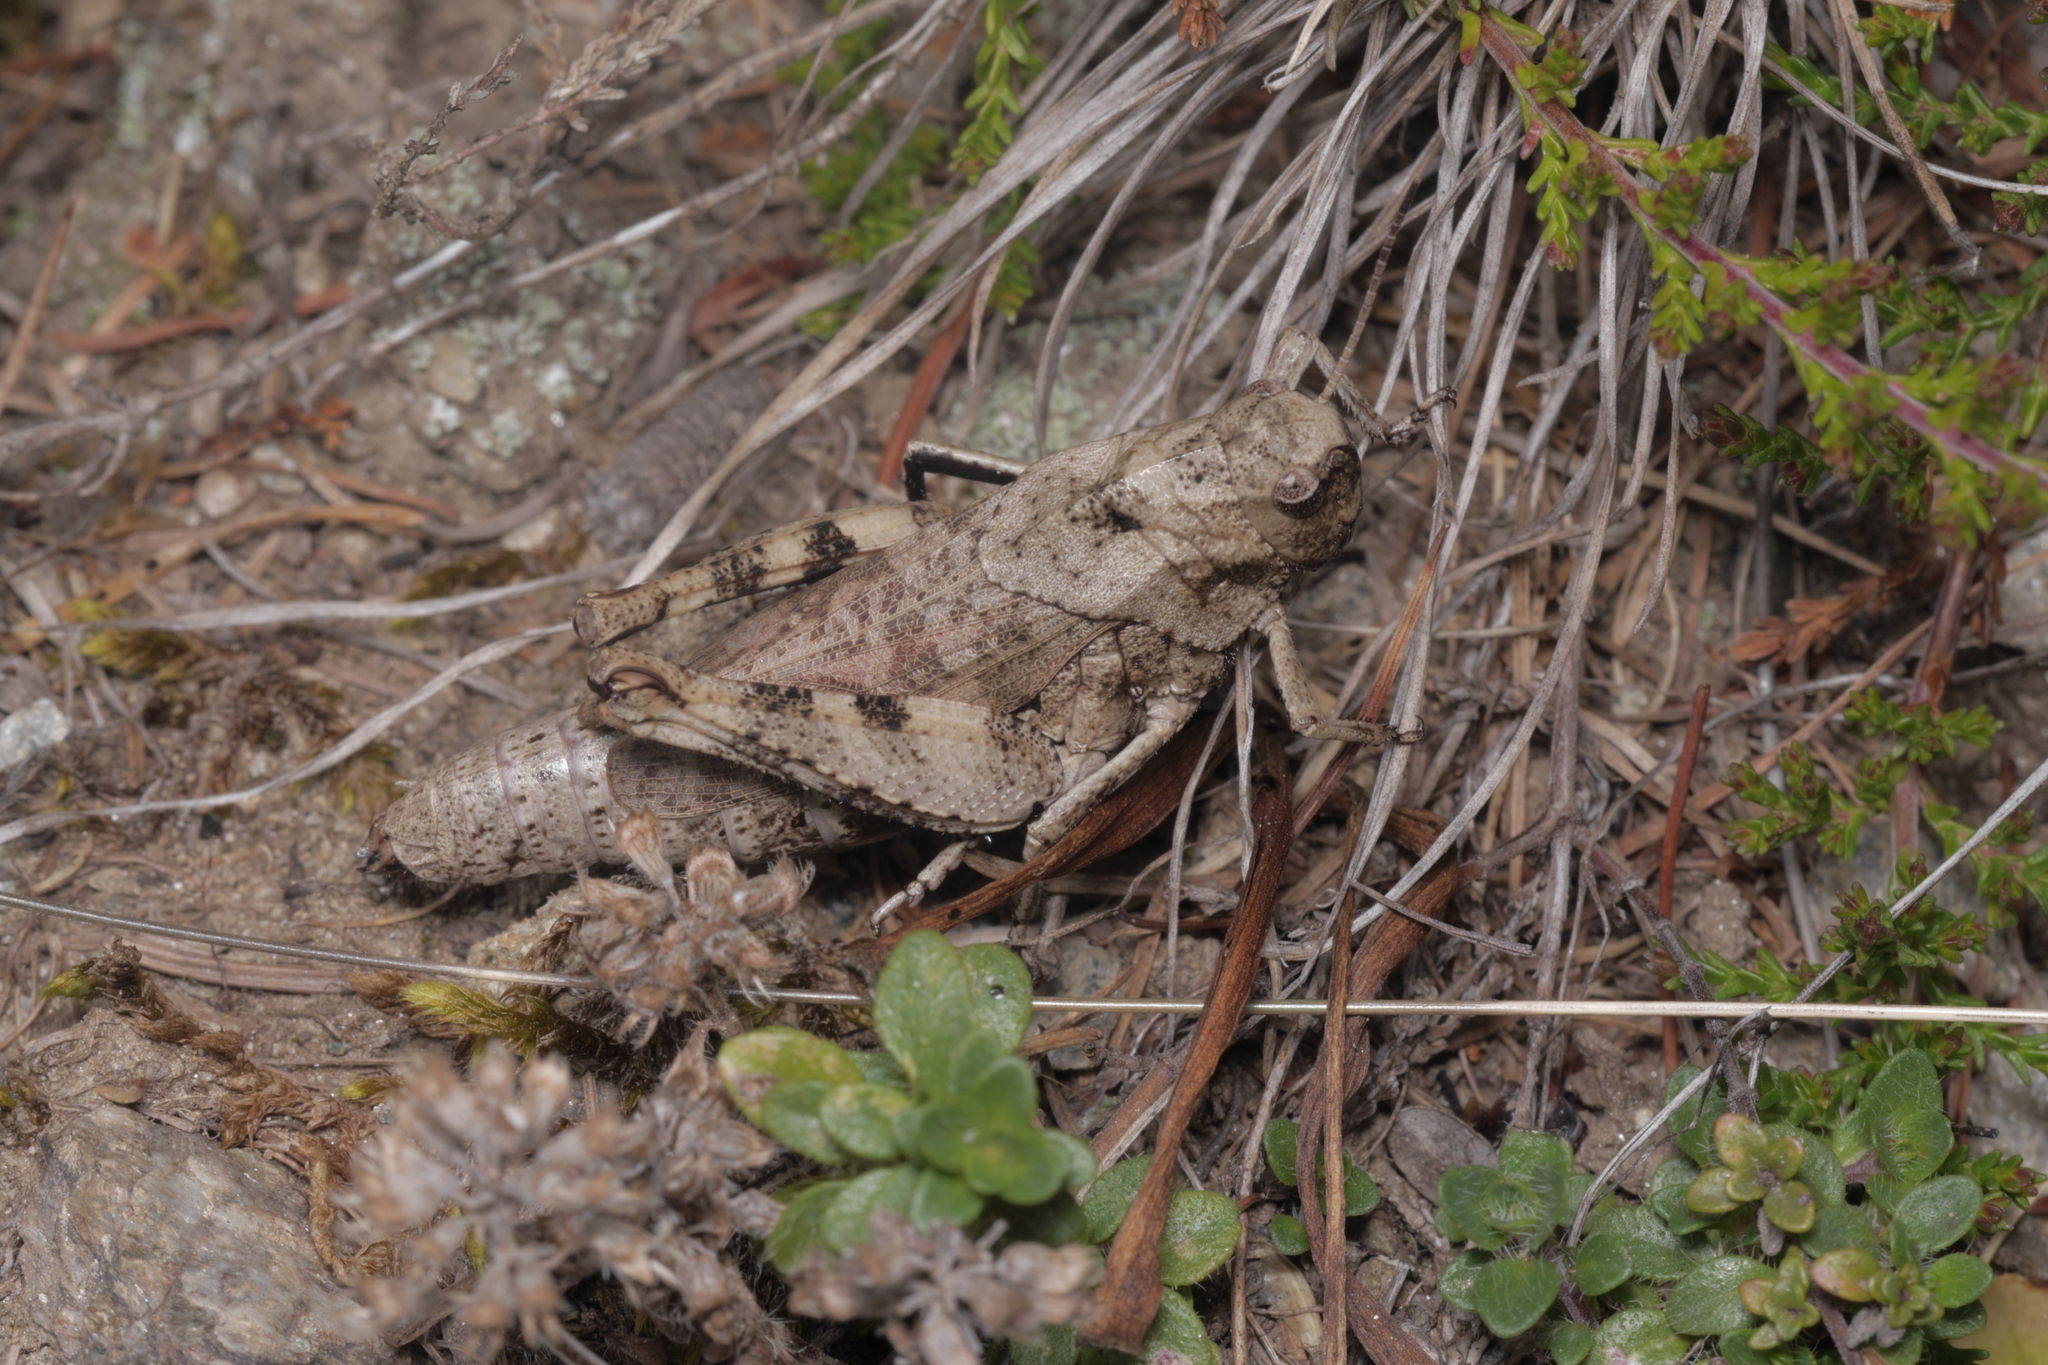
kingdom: Animalia
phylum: Arthropoda
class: Insecta
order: Orthoptera
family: Acrididae
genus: Psophus
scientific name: Psophus stridulus
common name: Rattle grasshopper
